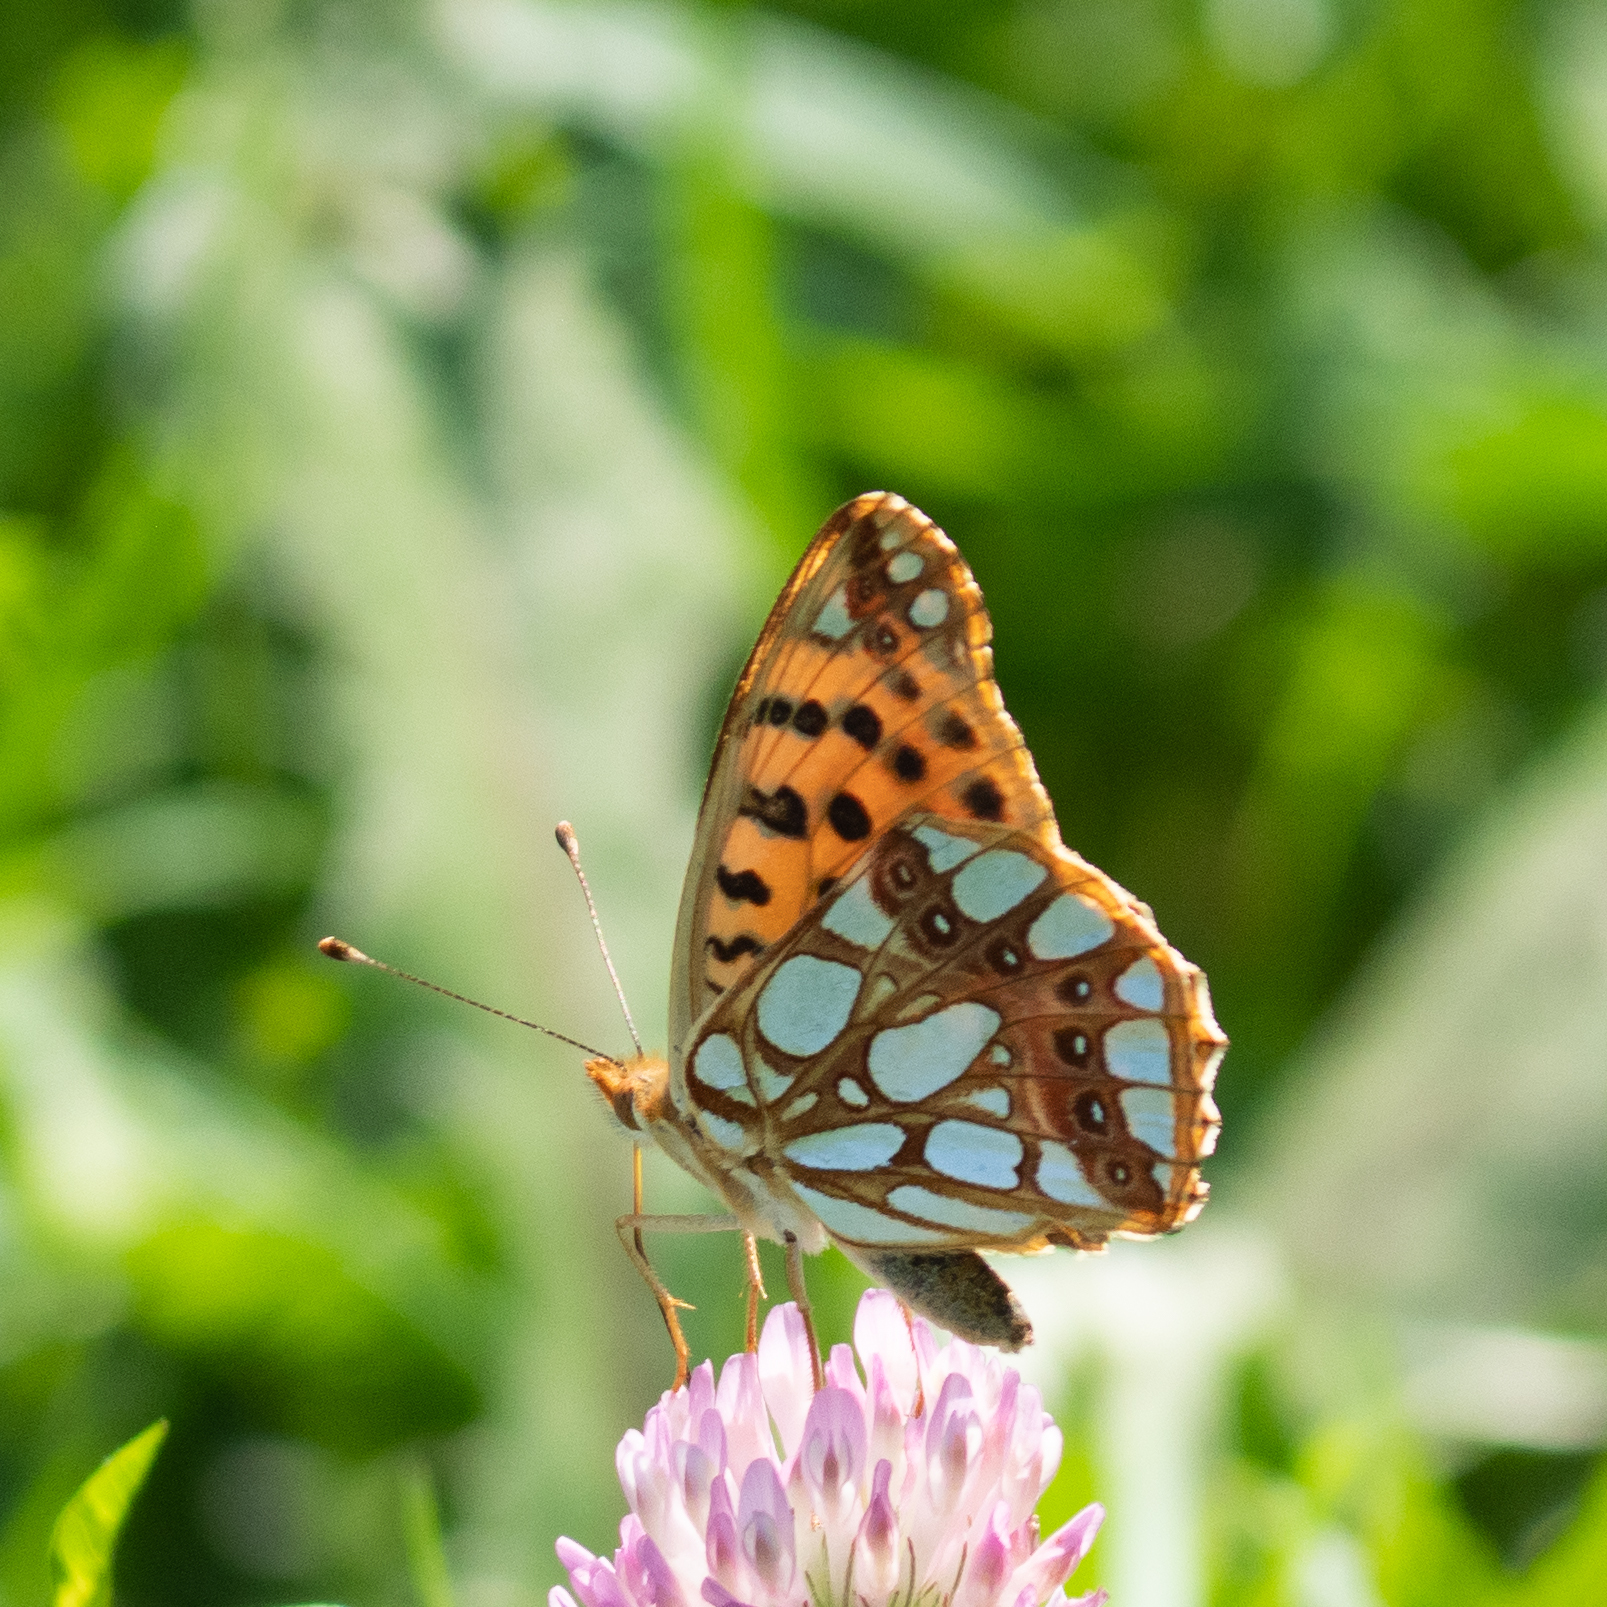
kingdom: Animalia
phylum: Arthropoda
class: Insecta
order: Lepidoptera
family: Nymphalidae
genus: Issoria
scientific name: Issoria lathonia
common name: Queen of spain fritillary
